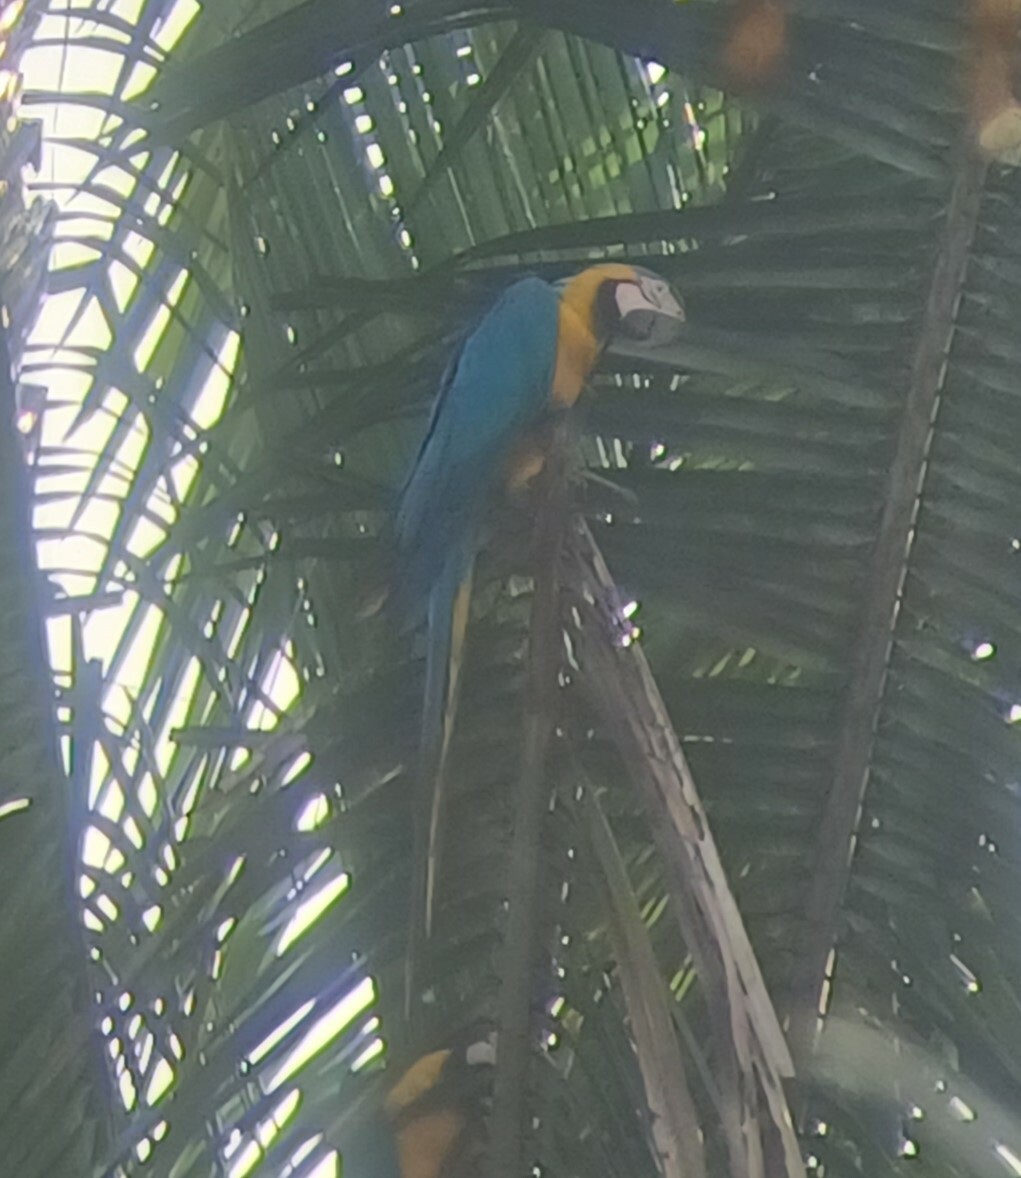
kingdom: Animalia
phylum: Chordata
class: Aves
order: Psittaciformes
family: Psittacidae
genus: Ara
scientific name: Ara ararauna
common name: Blue-and-yellow macaw
